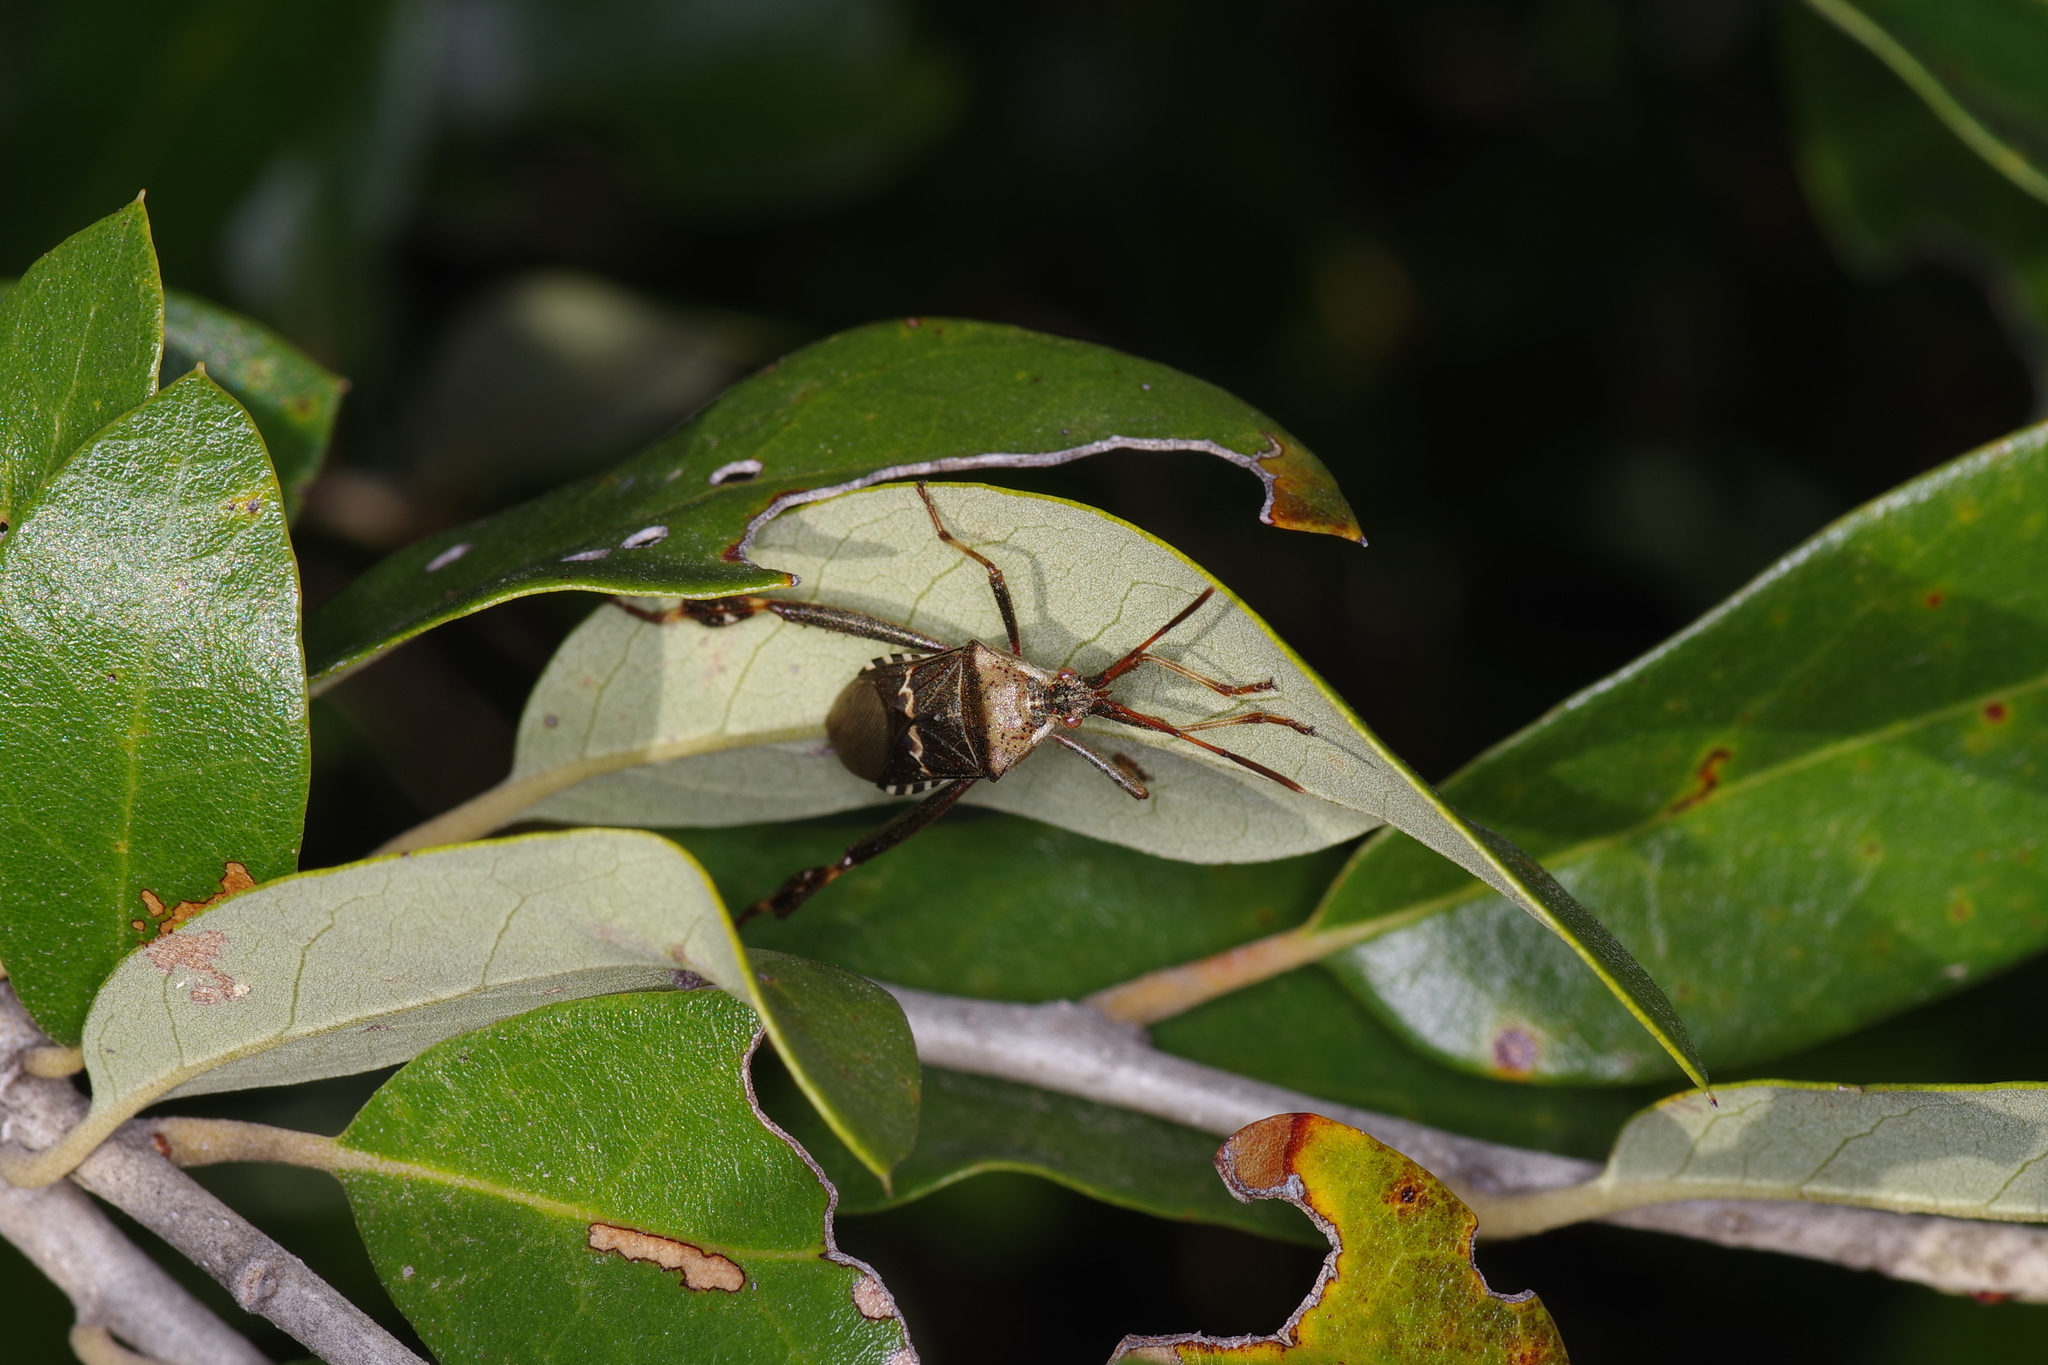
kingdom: Animalia
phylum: Arthropoda
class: Insecta
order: Hemiptera
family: Coreidae
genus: Leptoglossus
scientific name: Leptoglossus clypealis
